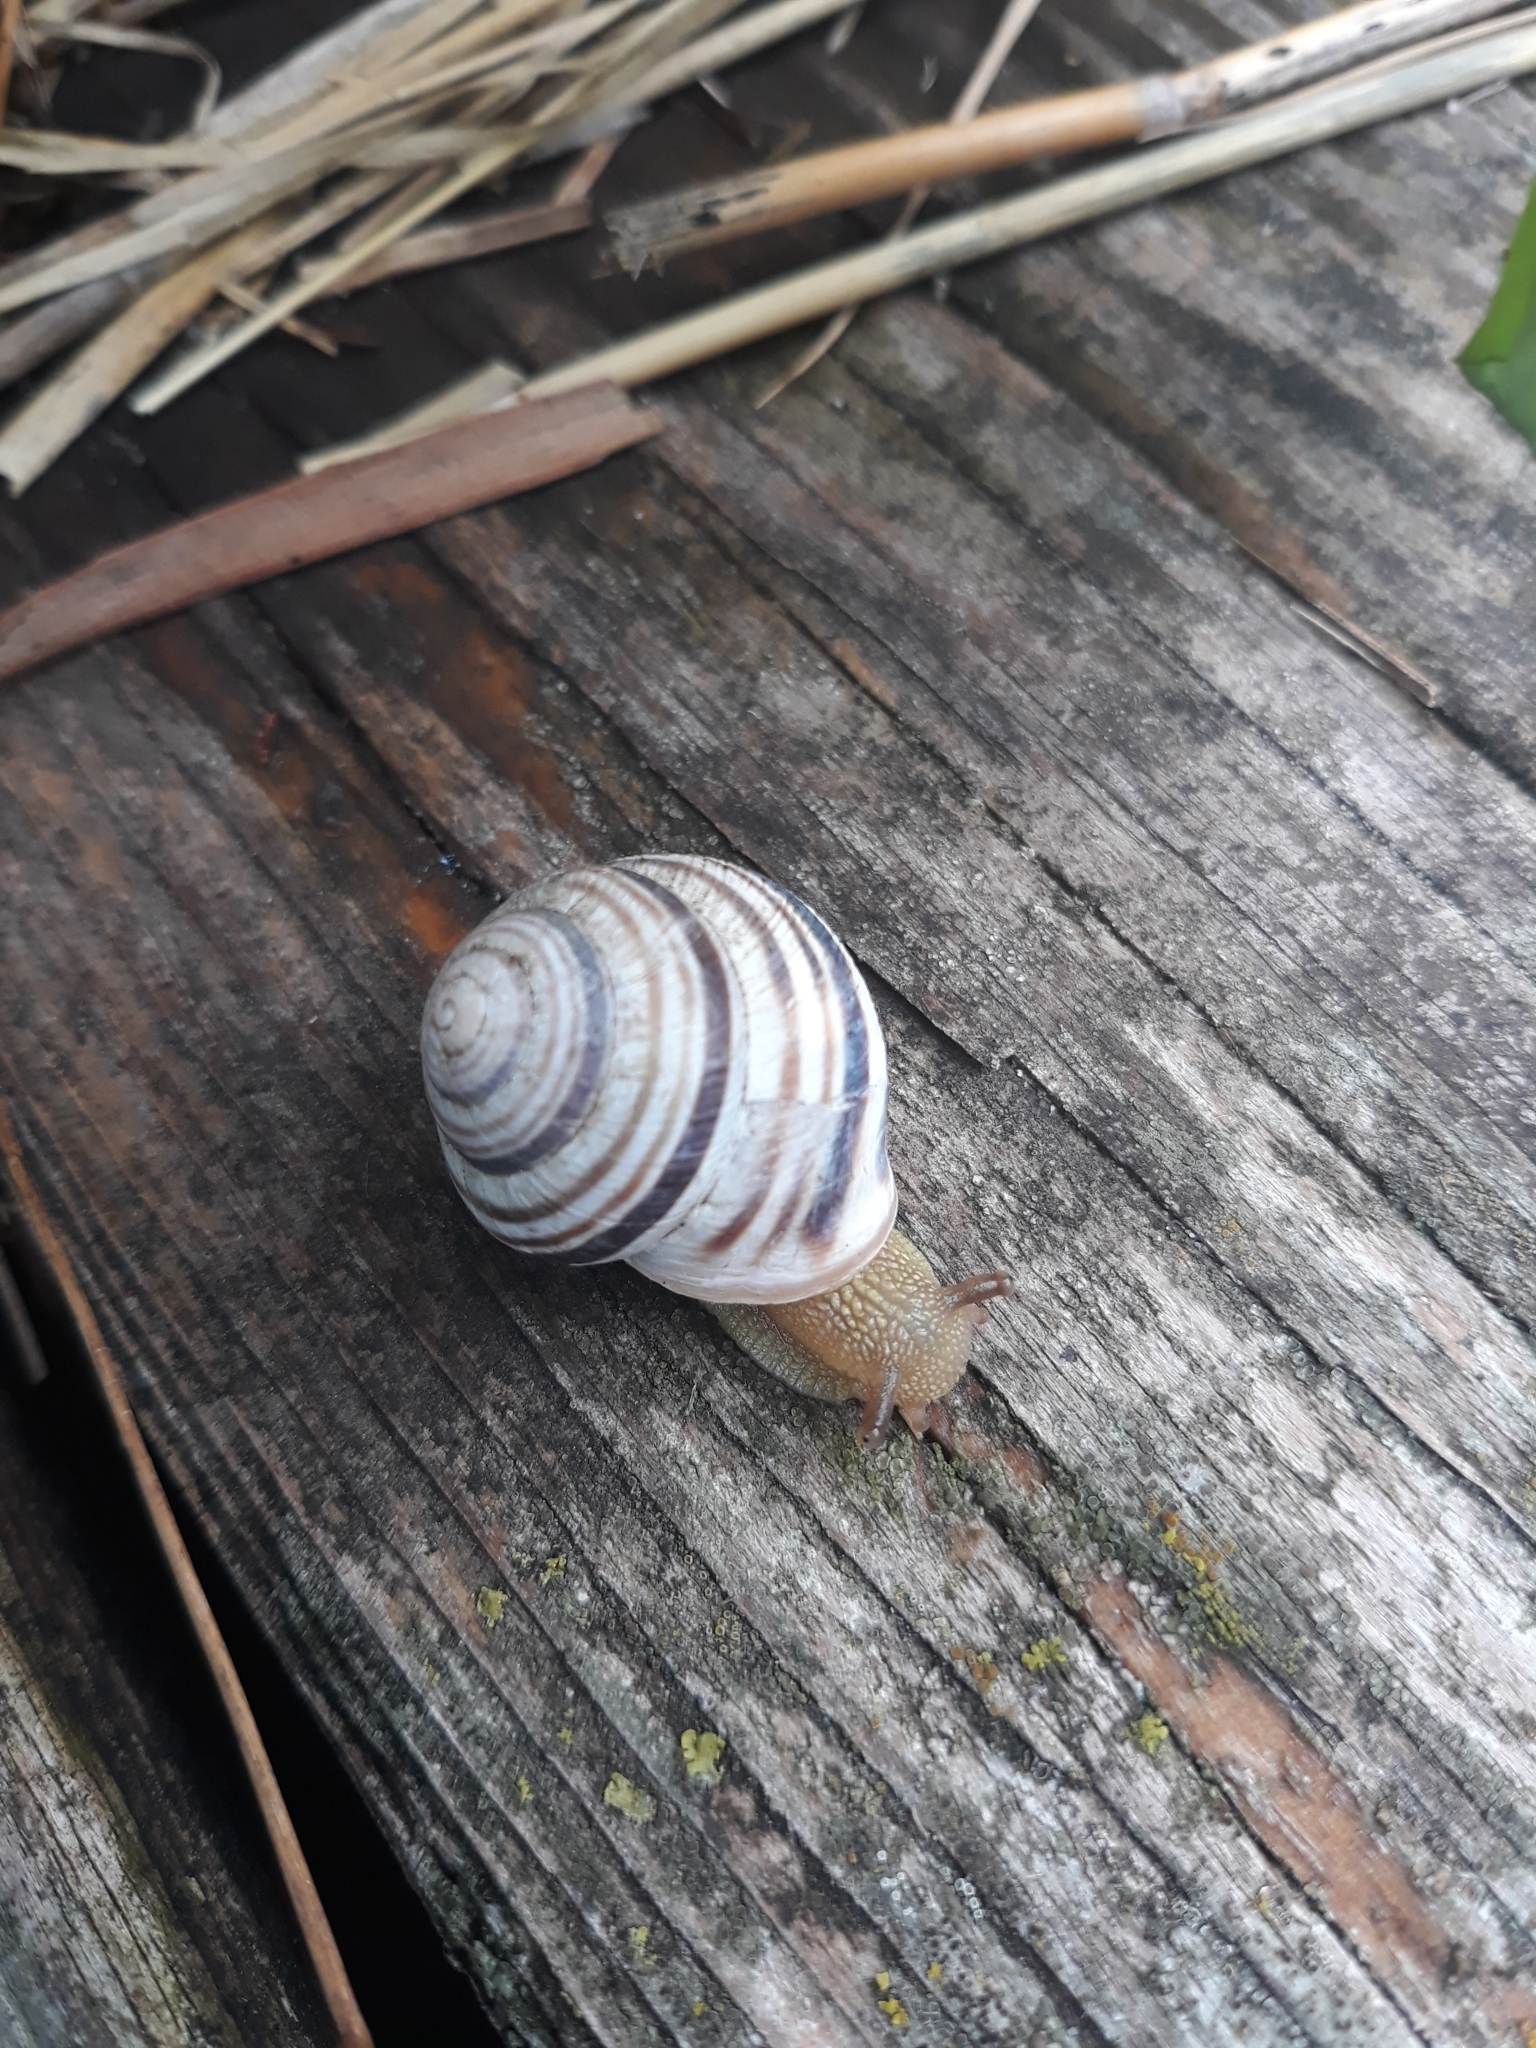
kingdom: Animalia
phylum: Mollusca
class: Gastropoda
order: Stylommatophora
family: Helicidae
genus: Caucasotachea
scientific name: Caucasotachea vindobonensis
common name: European helicid land snail
